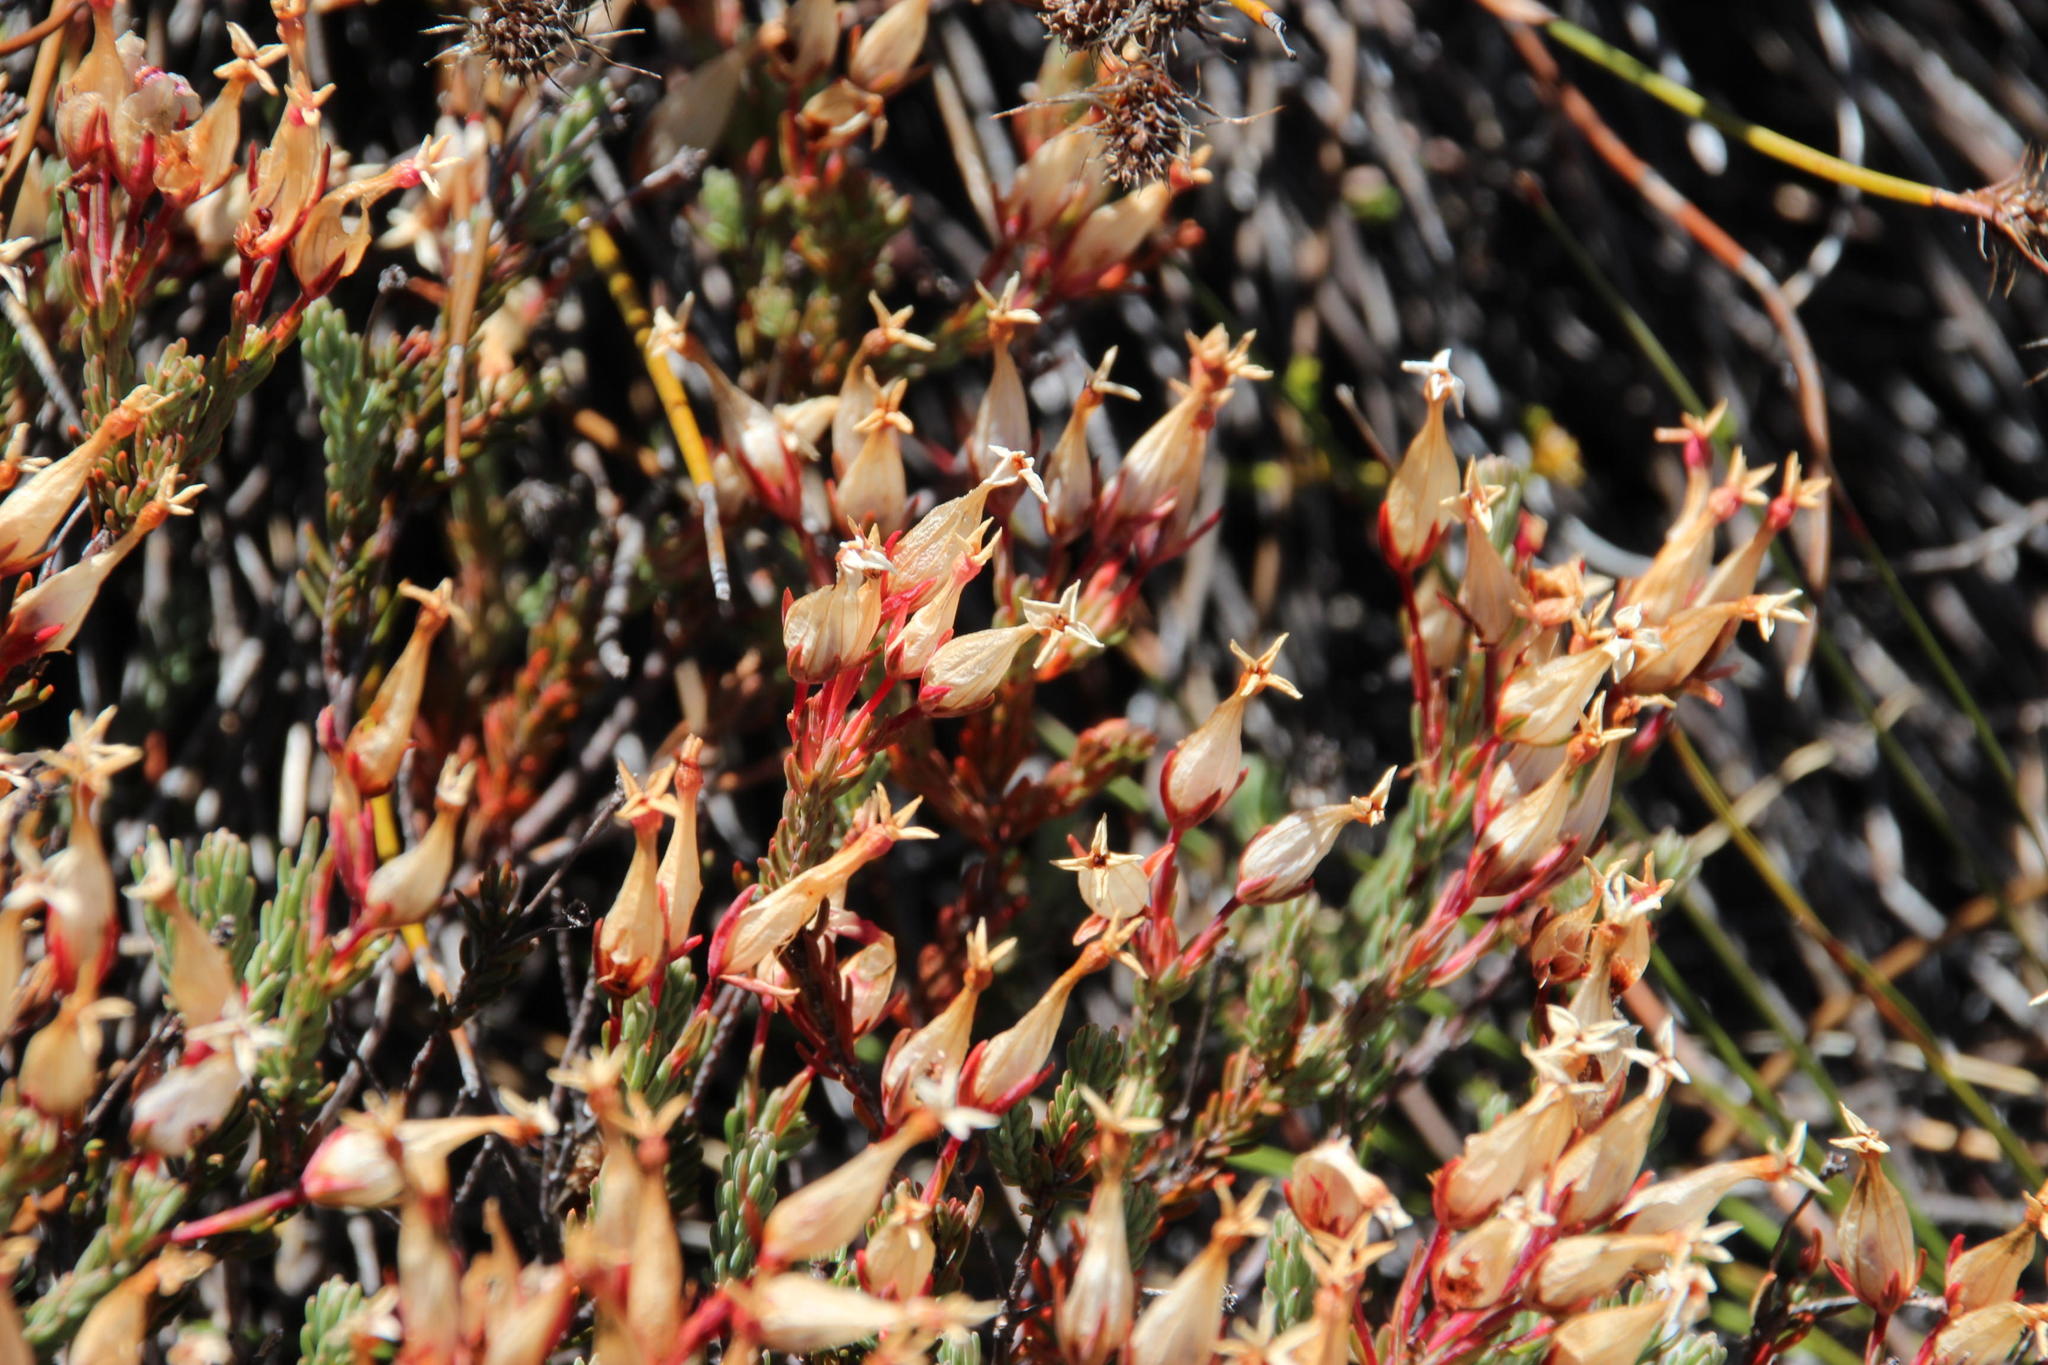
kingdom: Plantae
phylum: Tracheophyta
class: Magnoliopsida
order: Ericales
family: Ericaceae
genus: Erica
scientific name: Erica junonia
